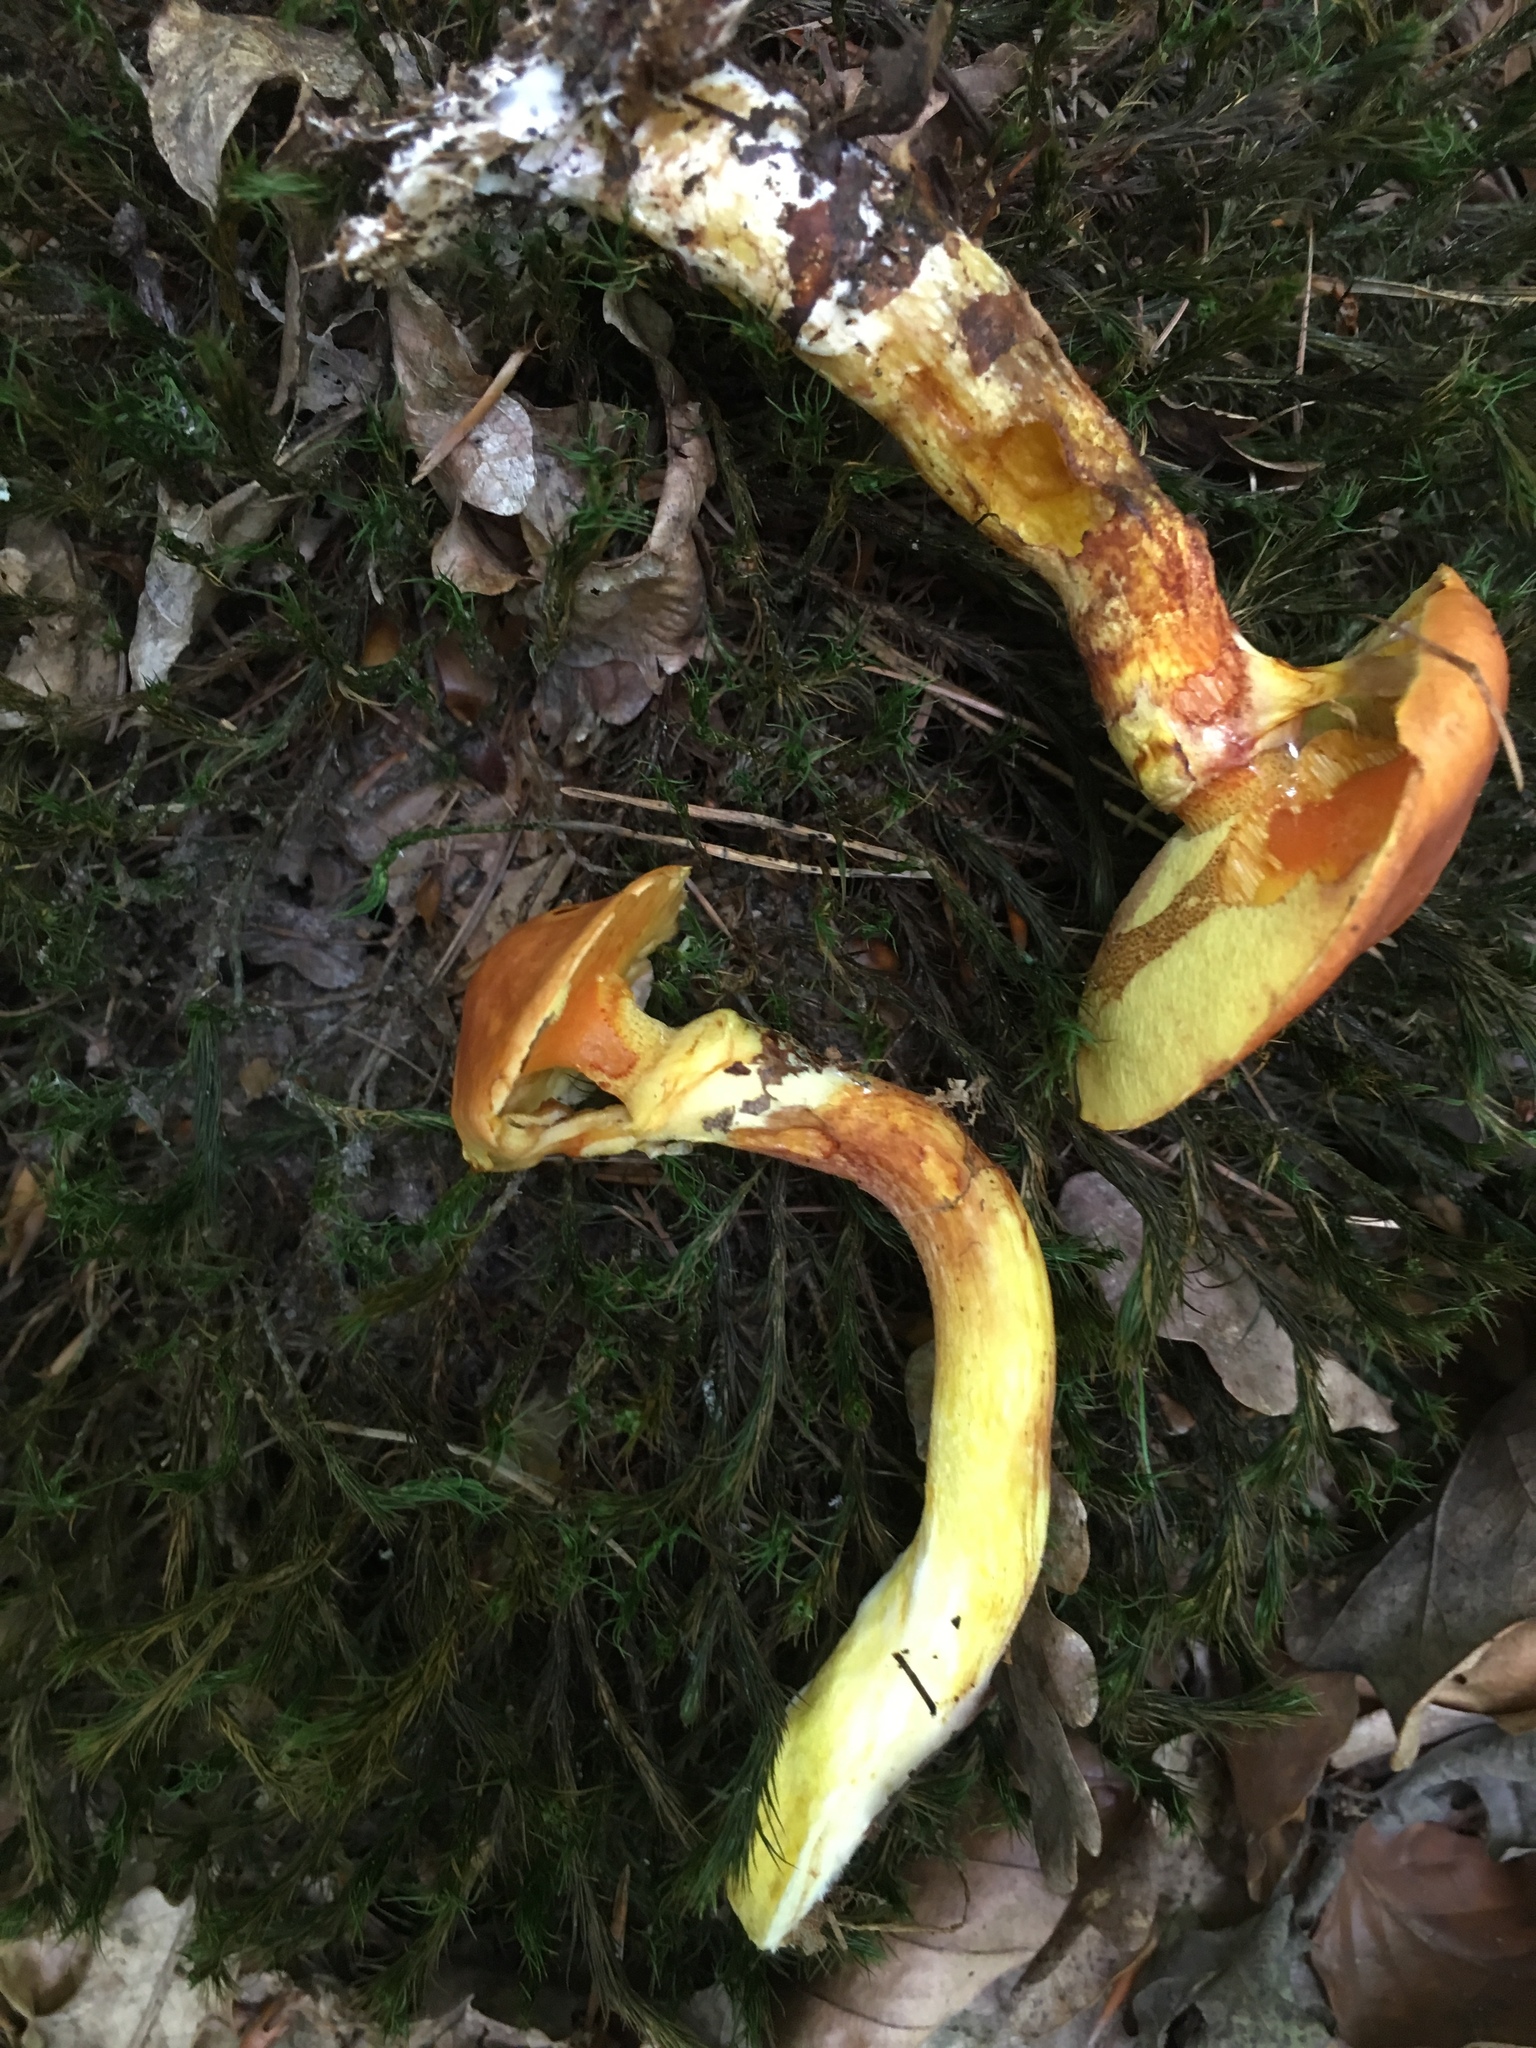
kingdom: Fungi
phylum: Basidiomycota
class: Agaricomycetes
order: Boletales
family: Suillaceae
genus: Suillus
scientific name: Suillus grevillei
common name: Larch bolete
